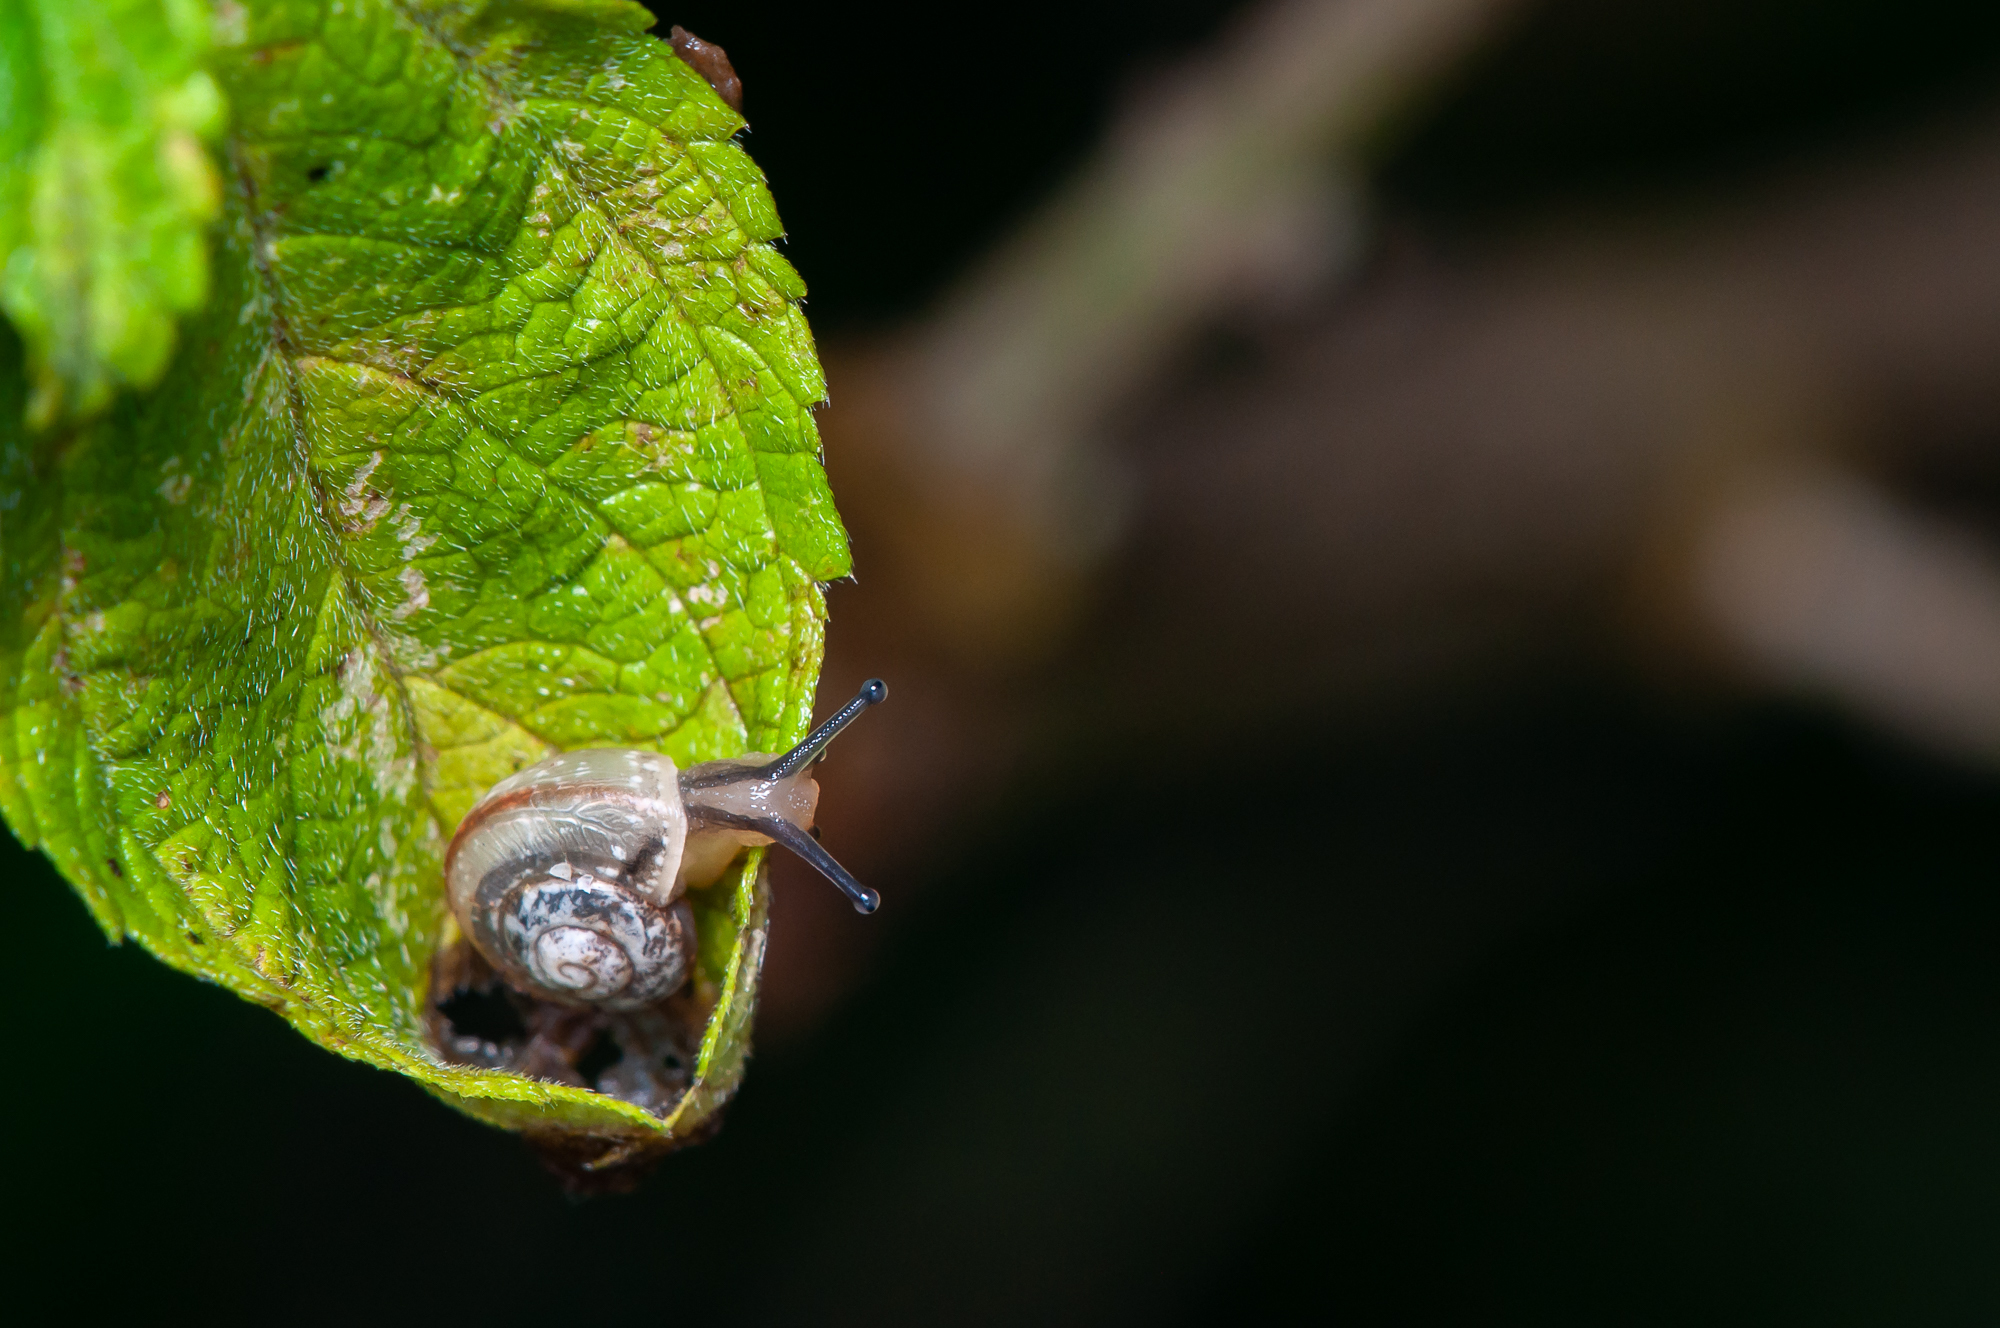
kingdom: Animalia
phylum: Mollusca
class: Gastropoda
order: Stylommatophora
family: Camaenidae
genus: Bradybaena
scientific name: Bradybaena similaris
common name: Asian trampsnail
